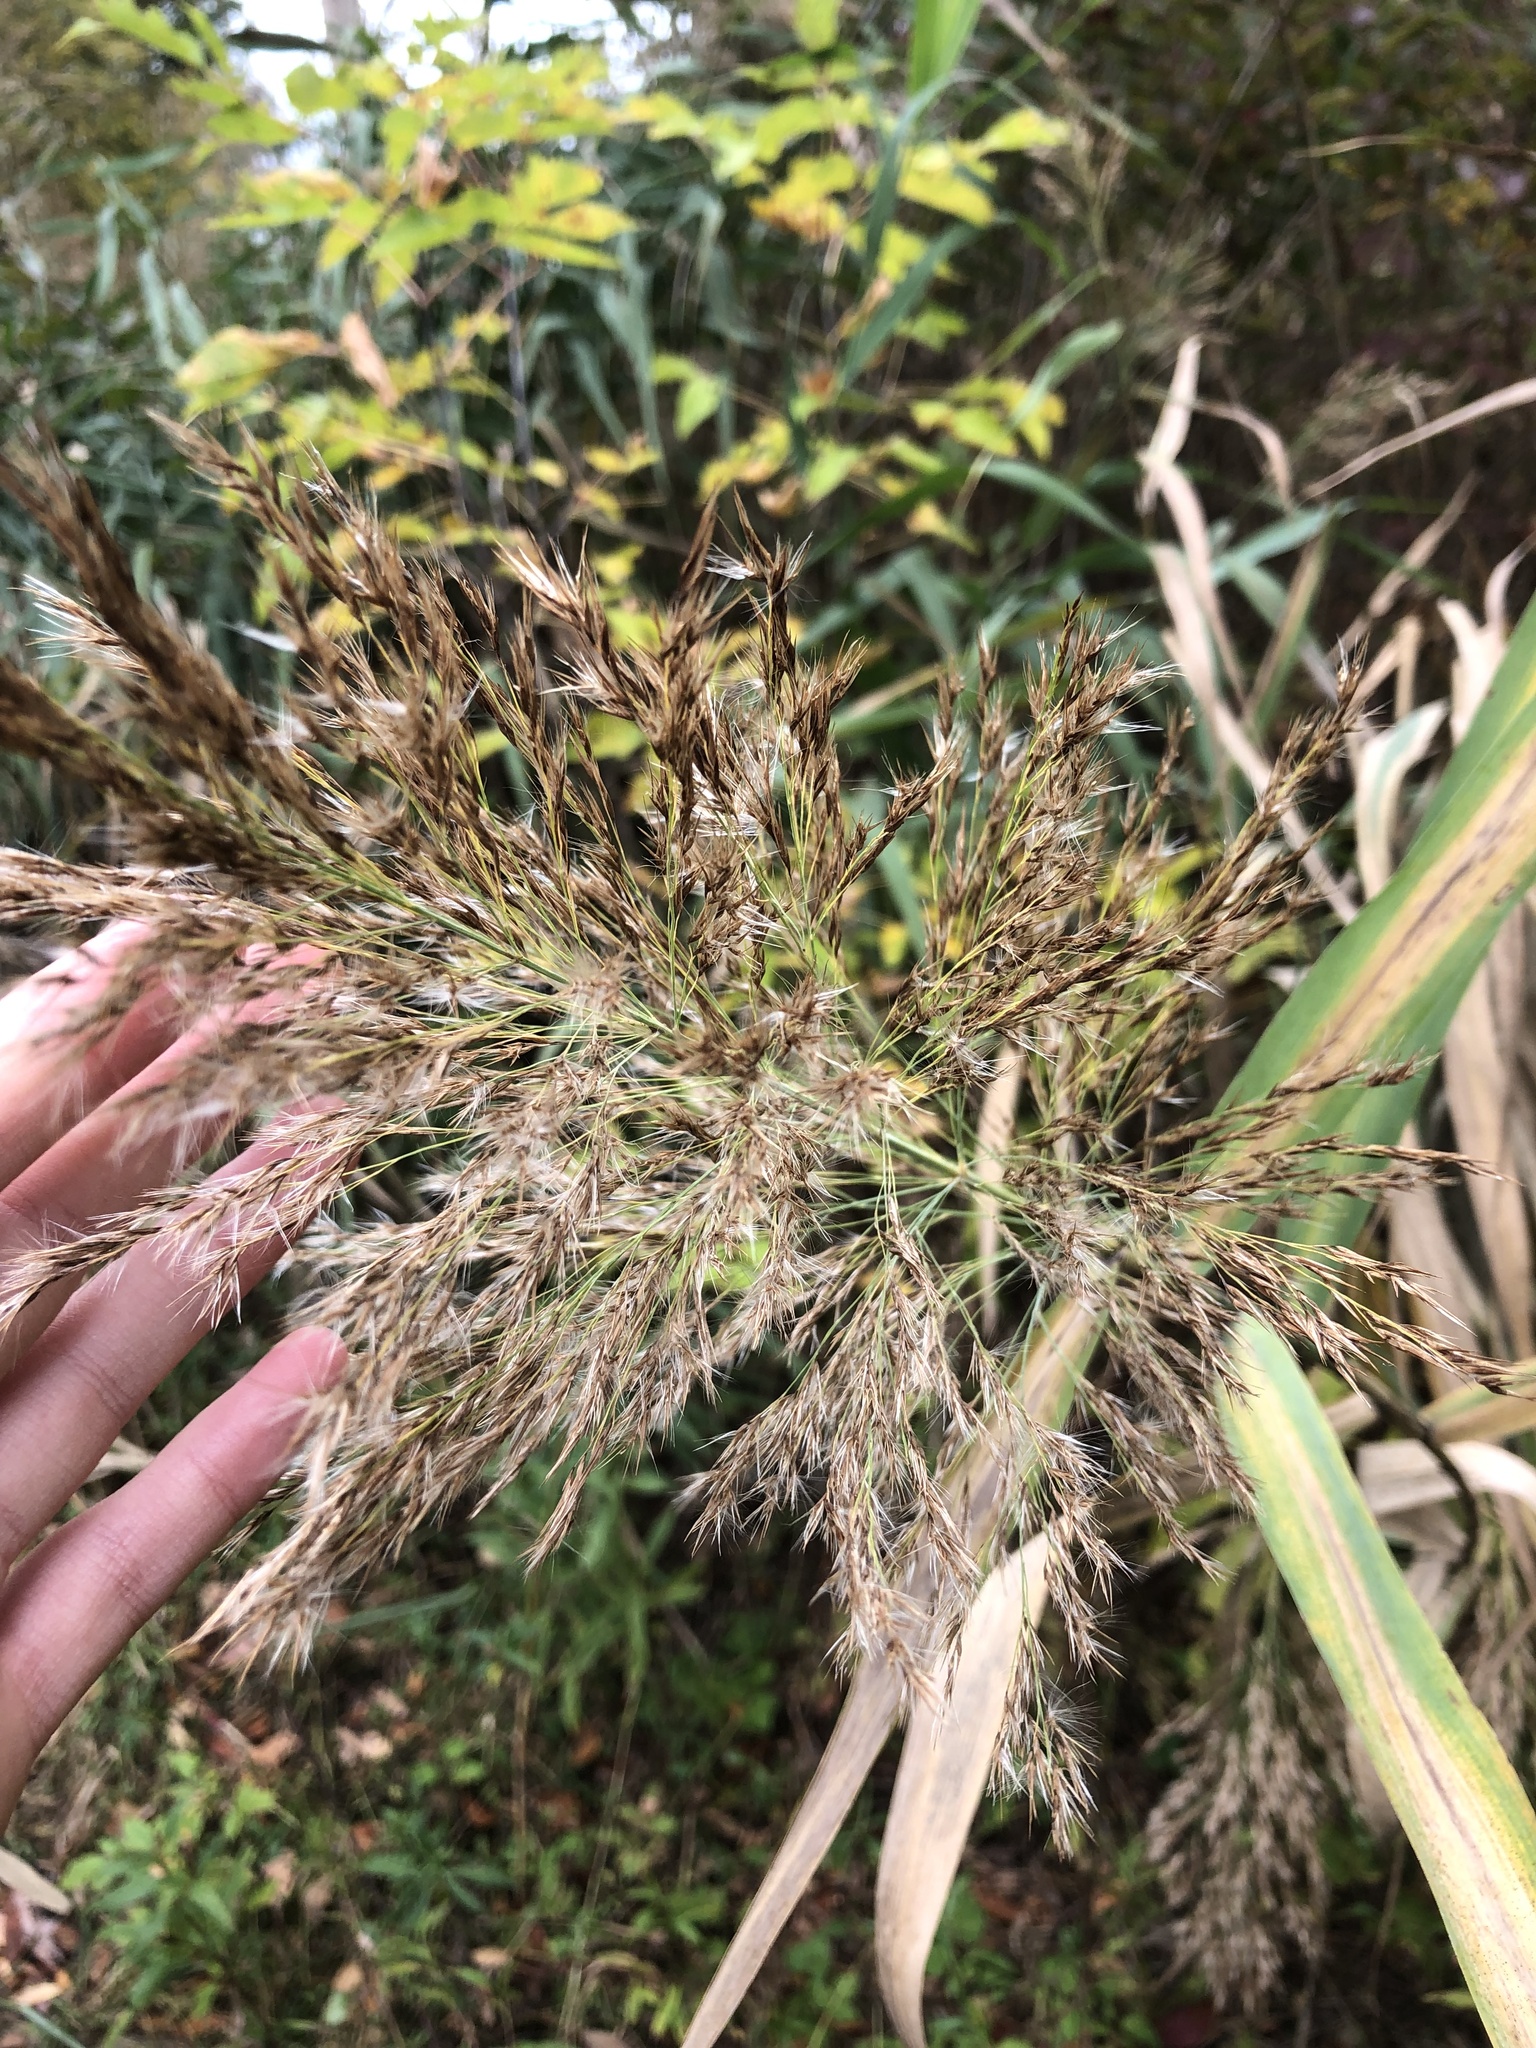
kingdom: Plantae
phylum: Tracheophyta
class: Liliopsida
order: Poales
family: Poaceae
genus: Phragmites
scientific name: Phragmites australis
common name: Common reed
